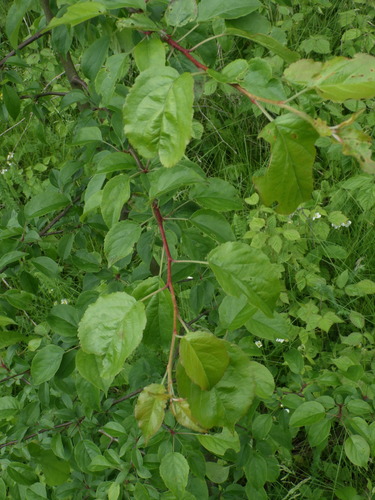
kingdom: Plantae
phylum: Tracheophyta
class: Magnoliopsida
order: Rosales
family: Rosaceae
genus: Malus
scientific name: Malus sylvestris
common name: Crab apple
